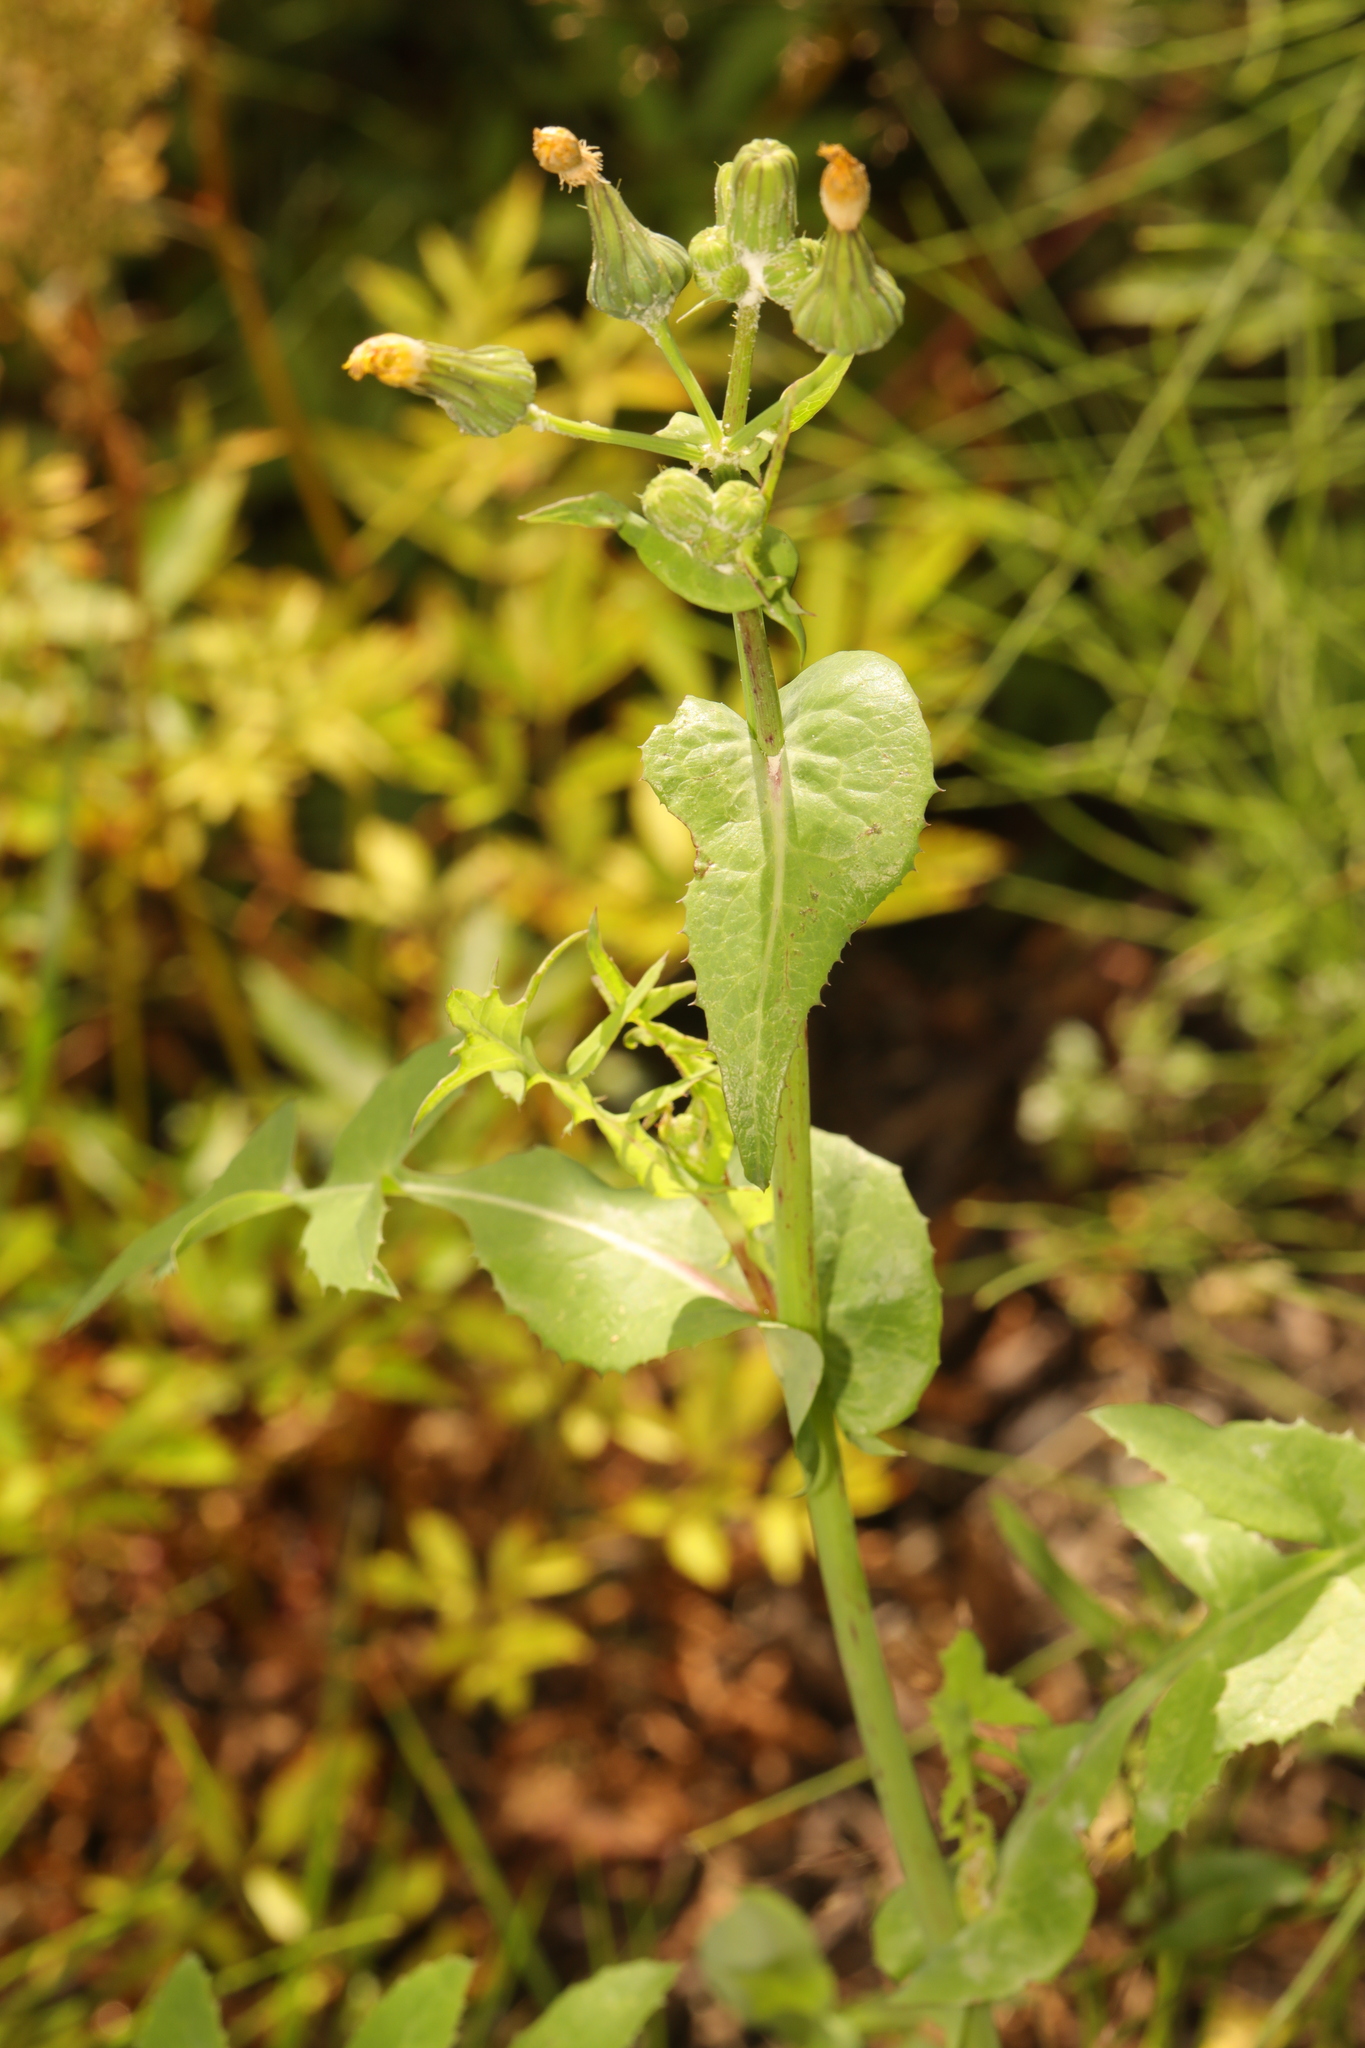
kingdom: Plantae
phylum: Tracheophyta
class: Magnoliopsida
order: Asterales
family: Asteraceae
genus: Sonchus
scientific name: Sonchus oleraceus
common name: Common sowthistle
